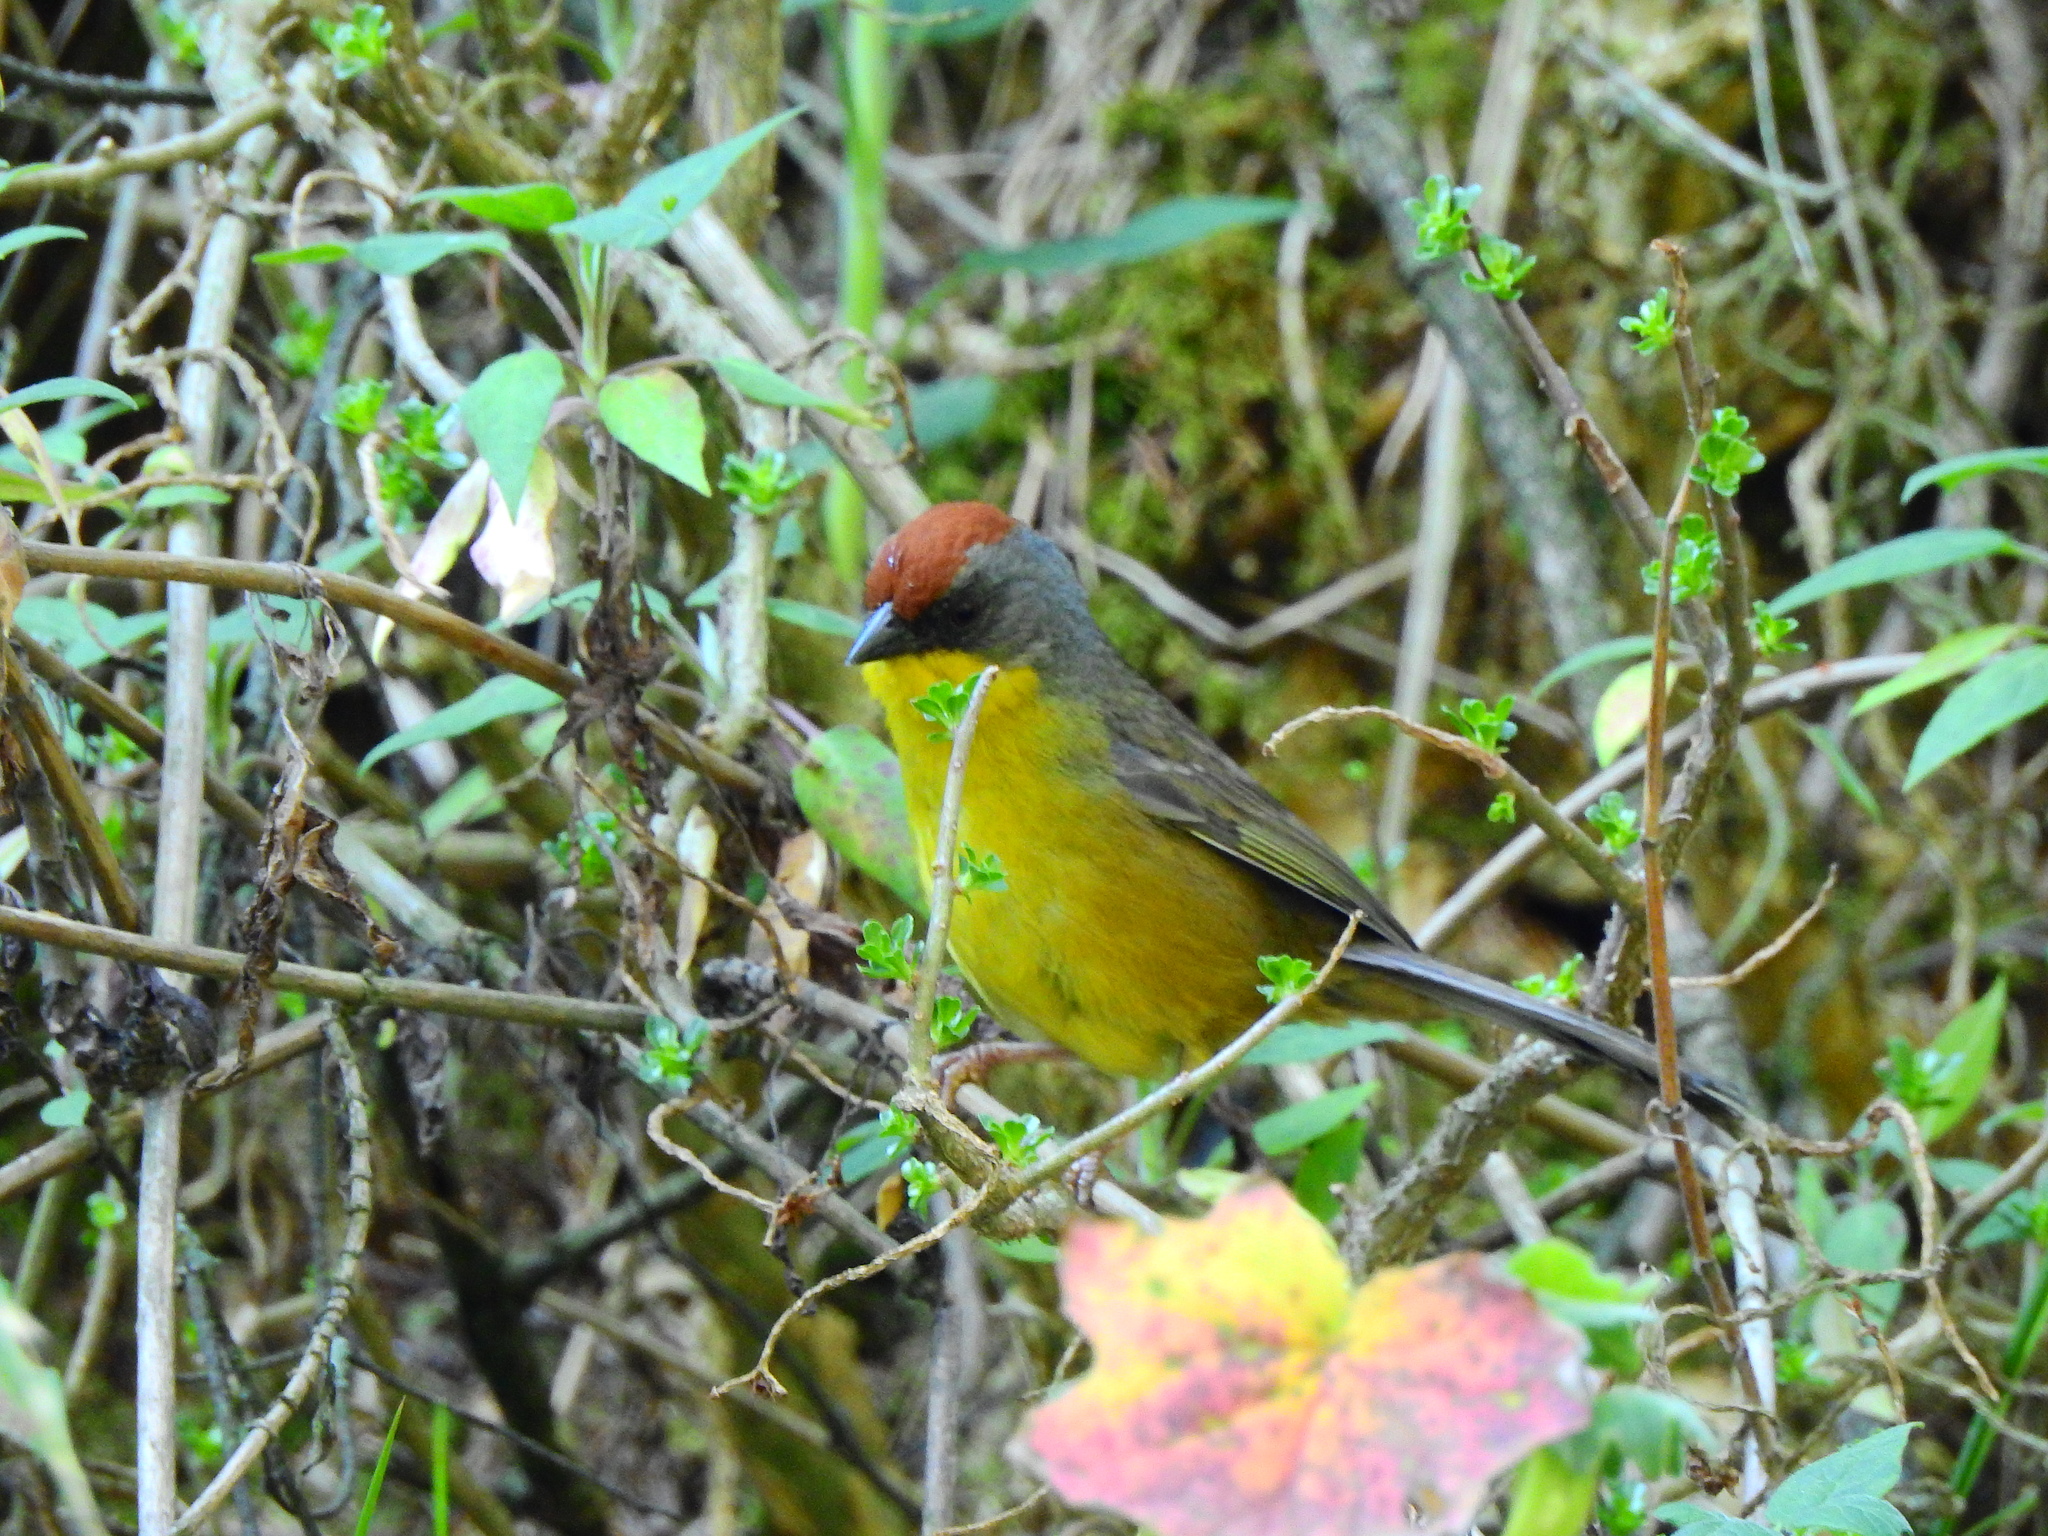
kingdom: Animalia
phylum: Chordata
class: Aves
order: Passeriformes
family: Passerellidae
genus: Atlapetes
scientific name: Atlapetes pileatus
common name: Rufous-capped brush-finch
